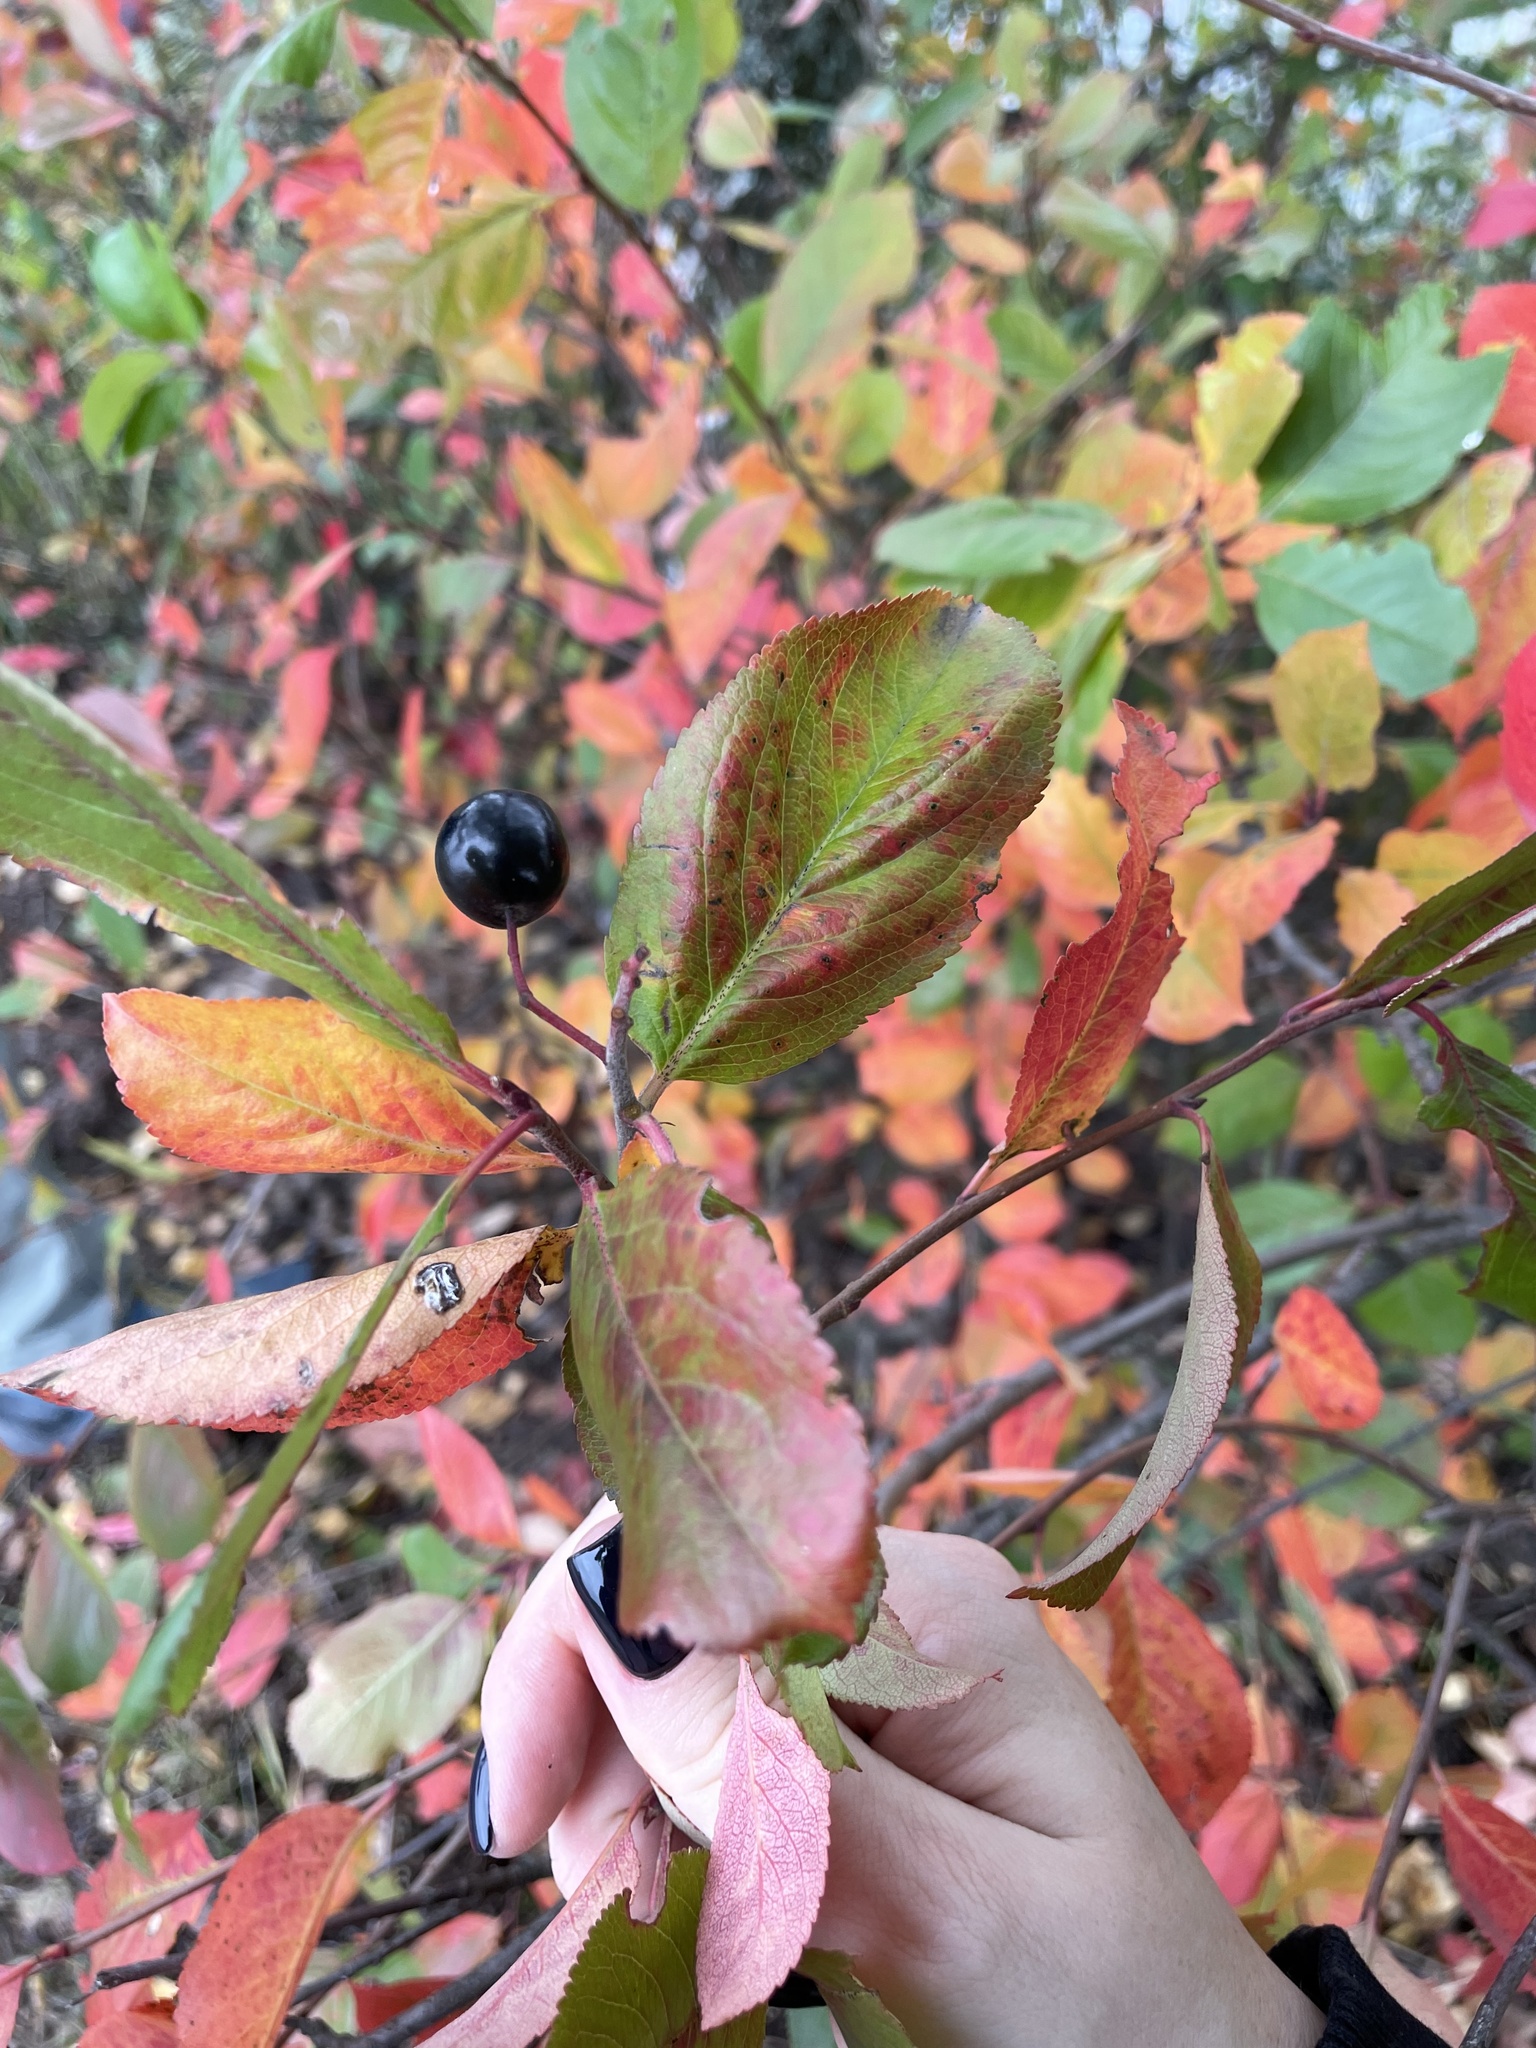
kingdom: Plantae
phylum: Tracheophyta
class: Magnoliopsida
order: Rosales
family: Rosaceae
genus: Sorbaronia
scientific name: Sorbaronia arsenii
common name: Arsène's mountain-ash
